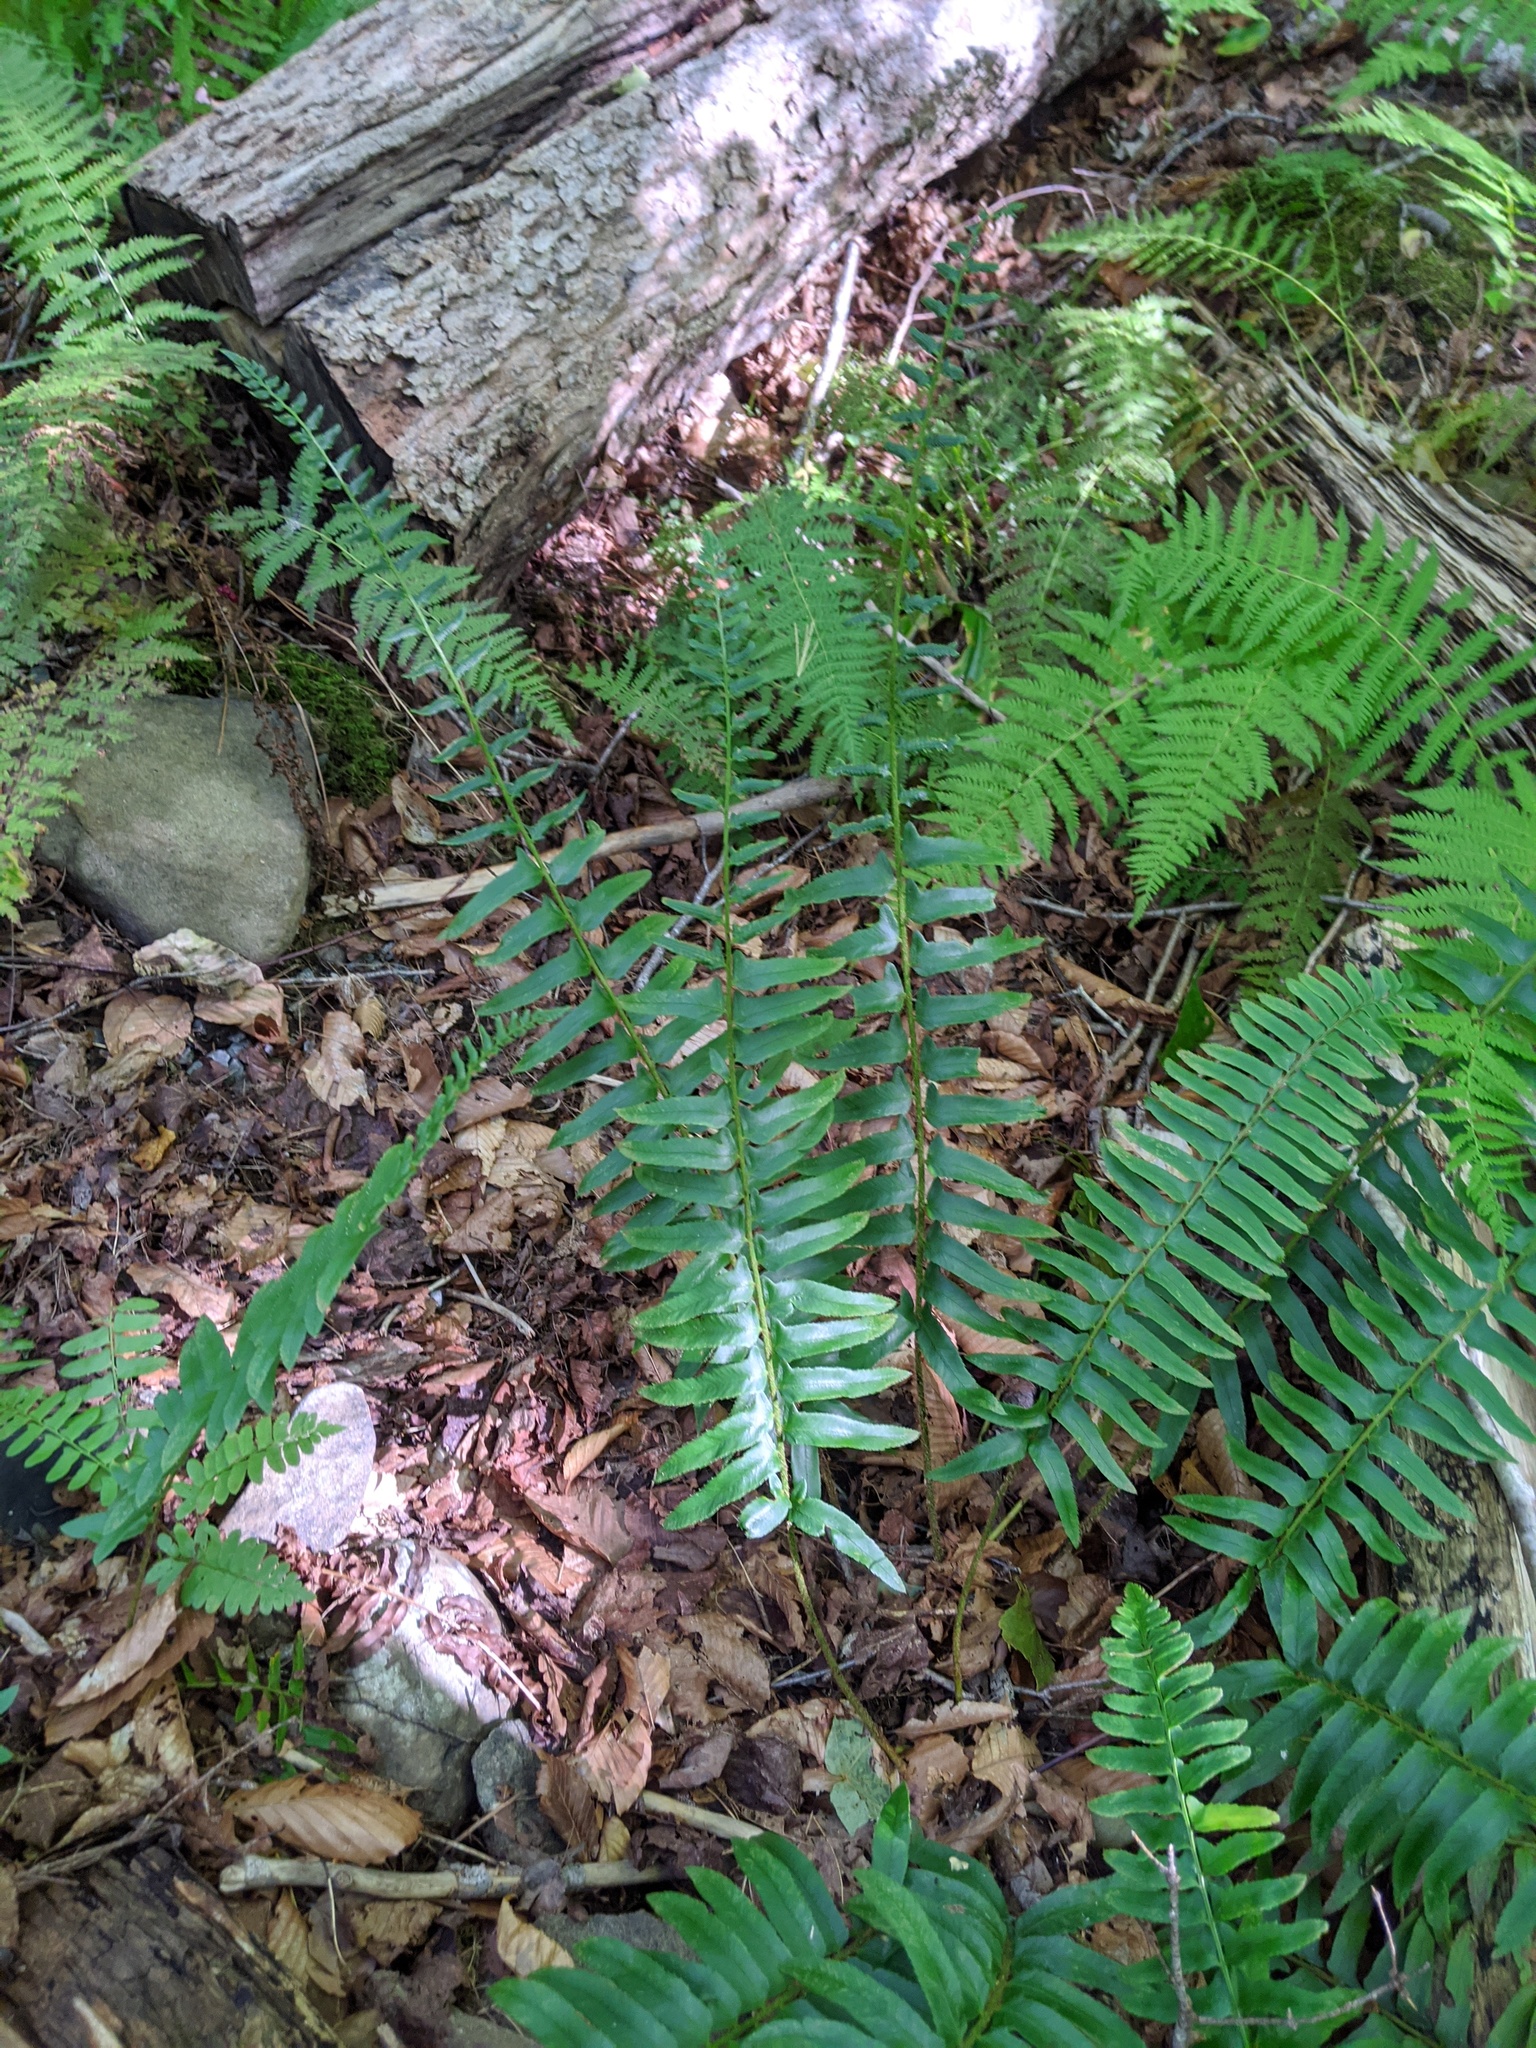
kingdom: Plantae
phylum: Tracheophyta
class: Polypodiopsida
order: Polypodiales
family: Dryopteridaceae
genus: Polystichum
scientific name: Polystichum acrostichoides
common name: Christmas fern
